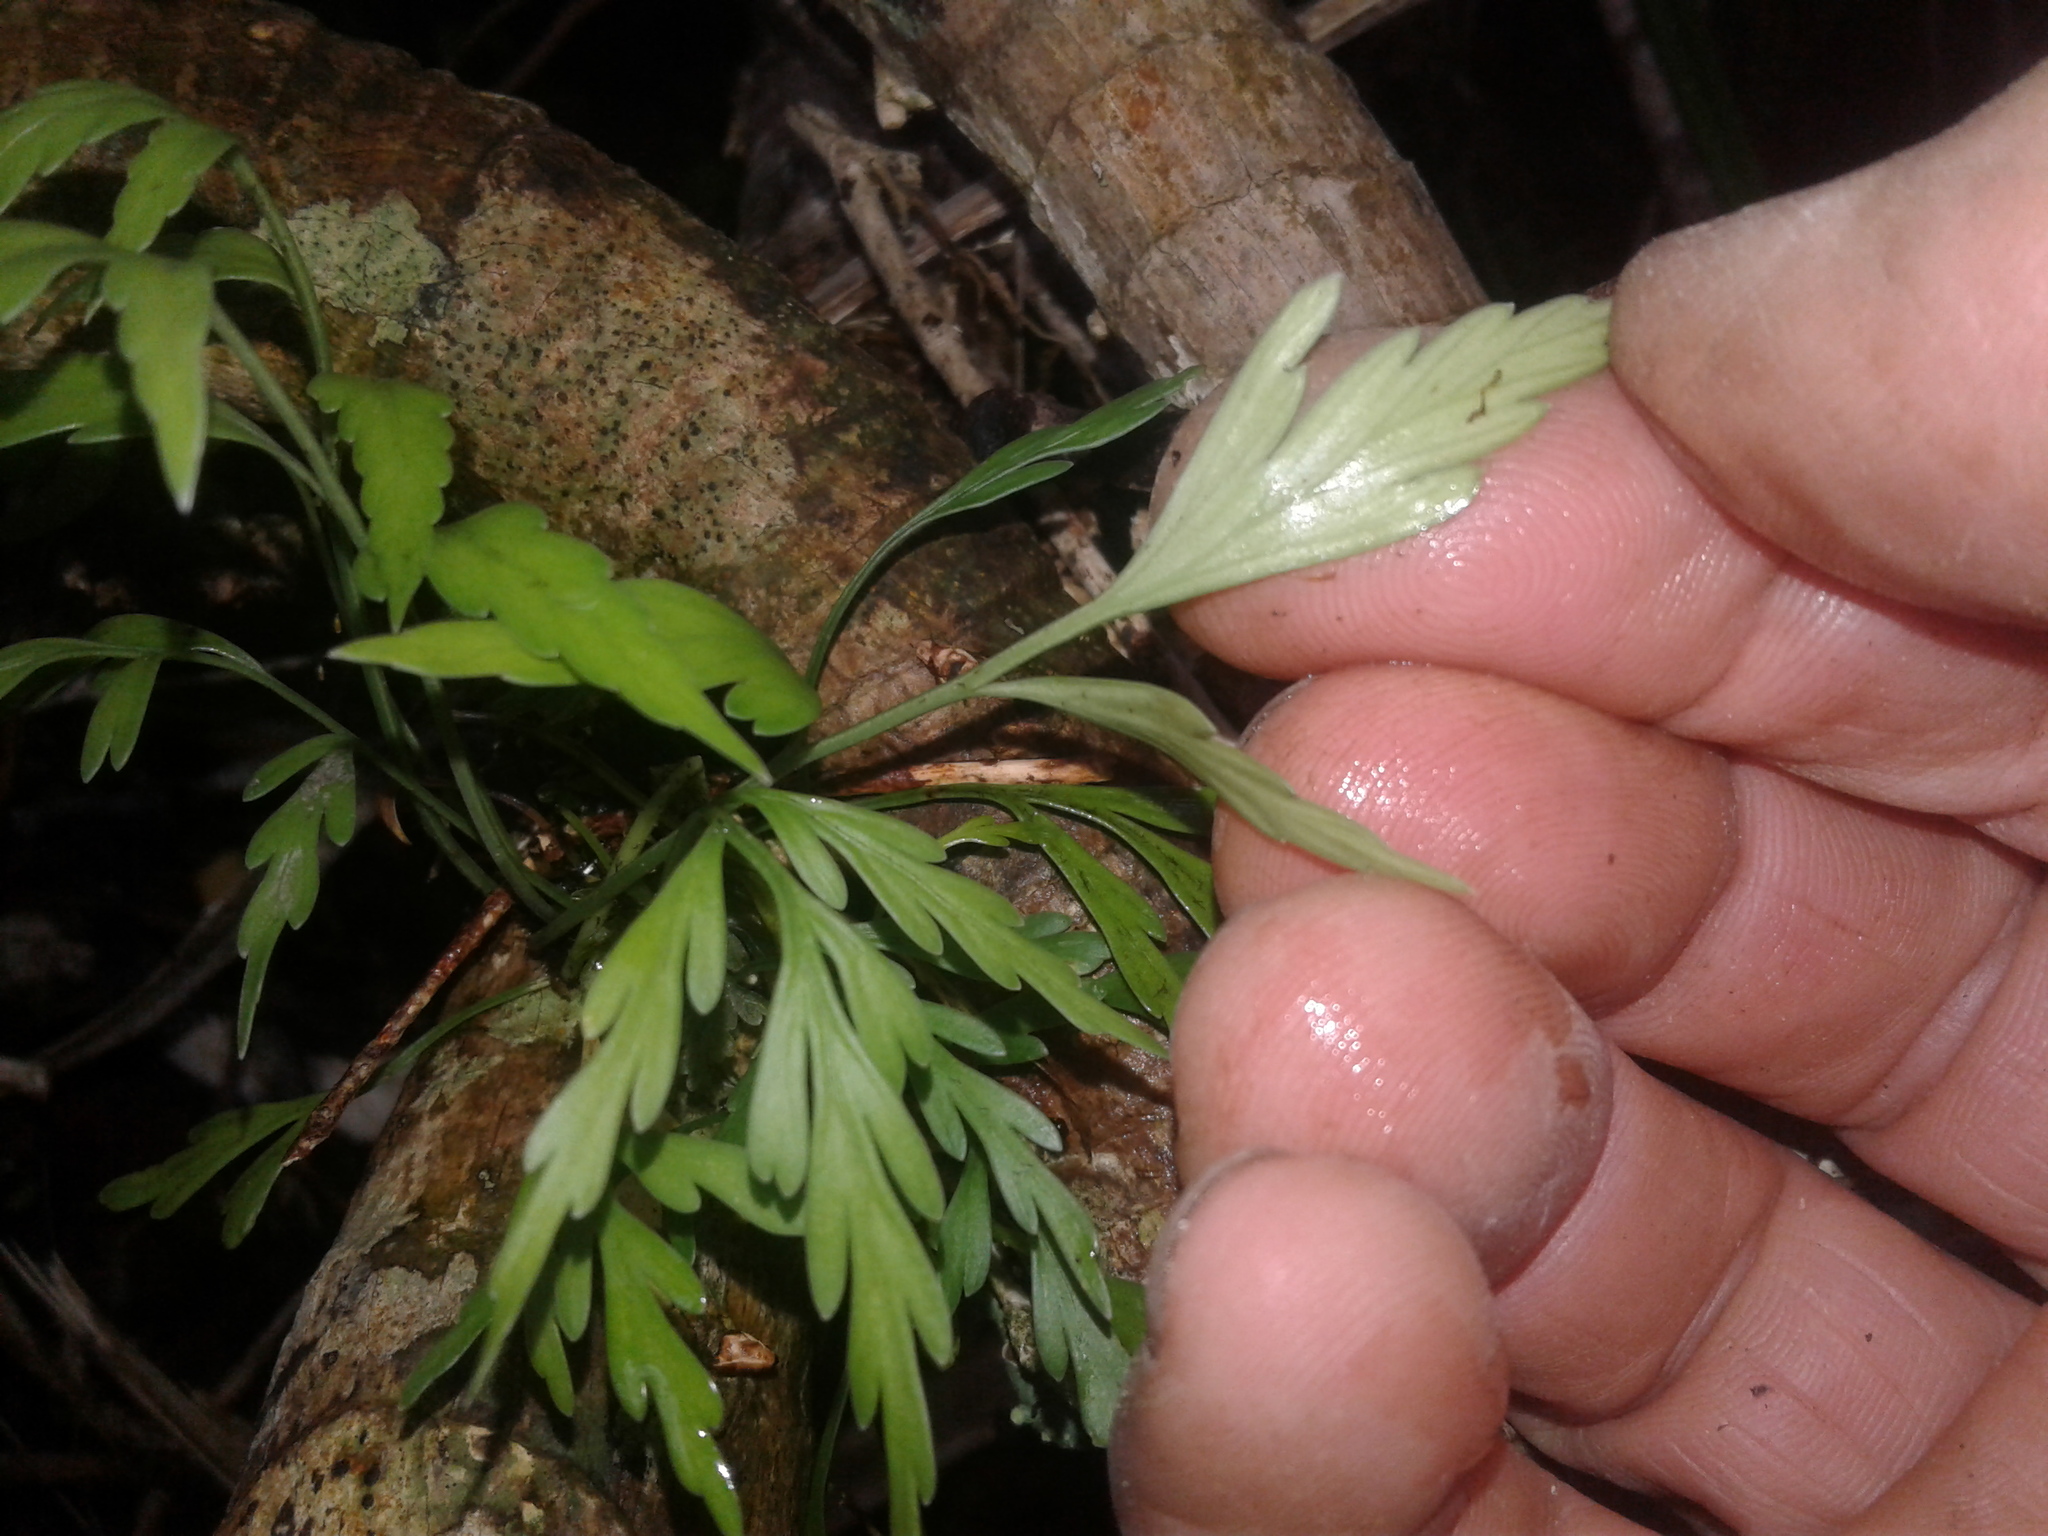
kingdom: Plantae
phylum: Tracheophyta
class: Polypodiopsida
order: Polypodiales
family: Aspleniaceae
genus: Asplenium
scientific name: Asplenium flaccidum
